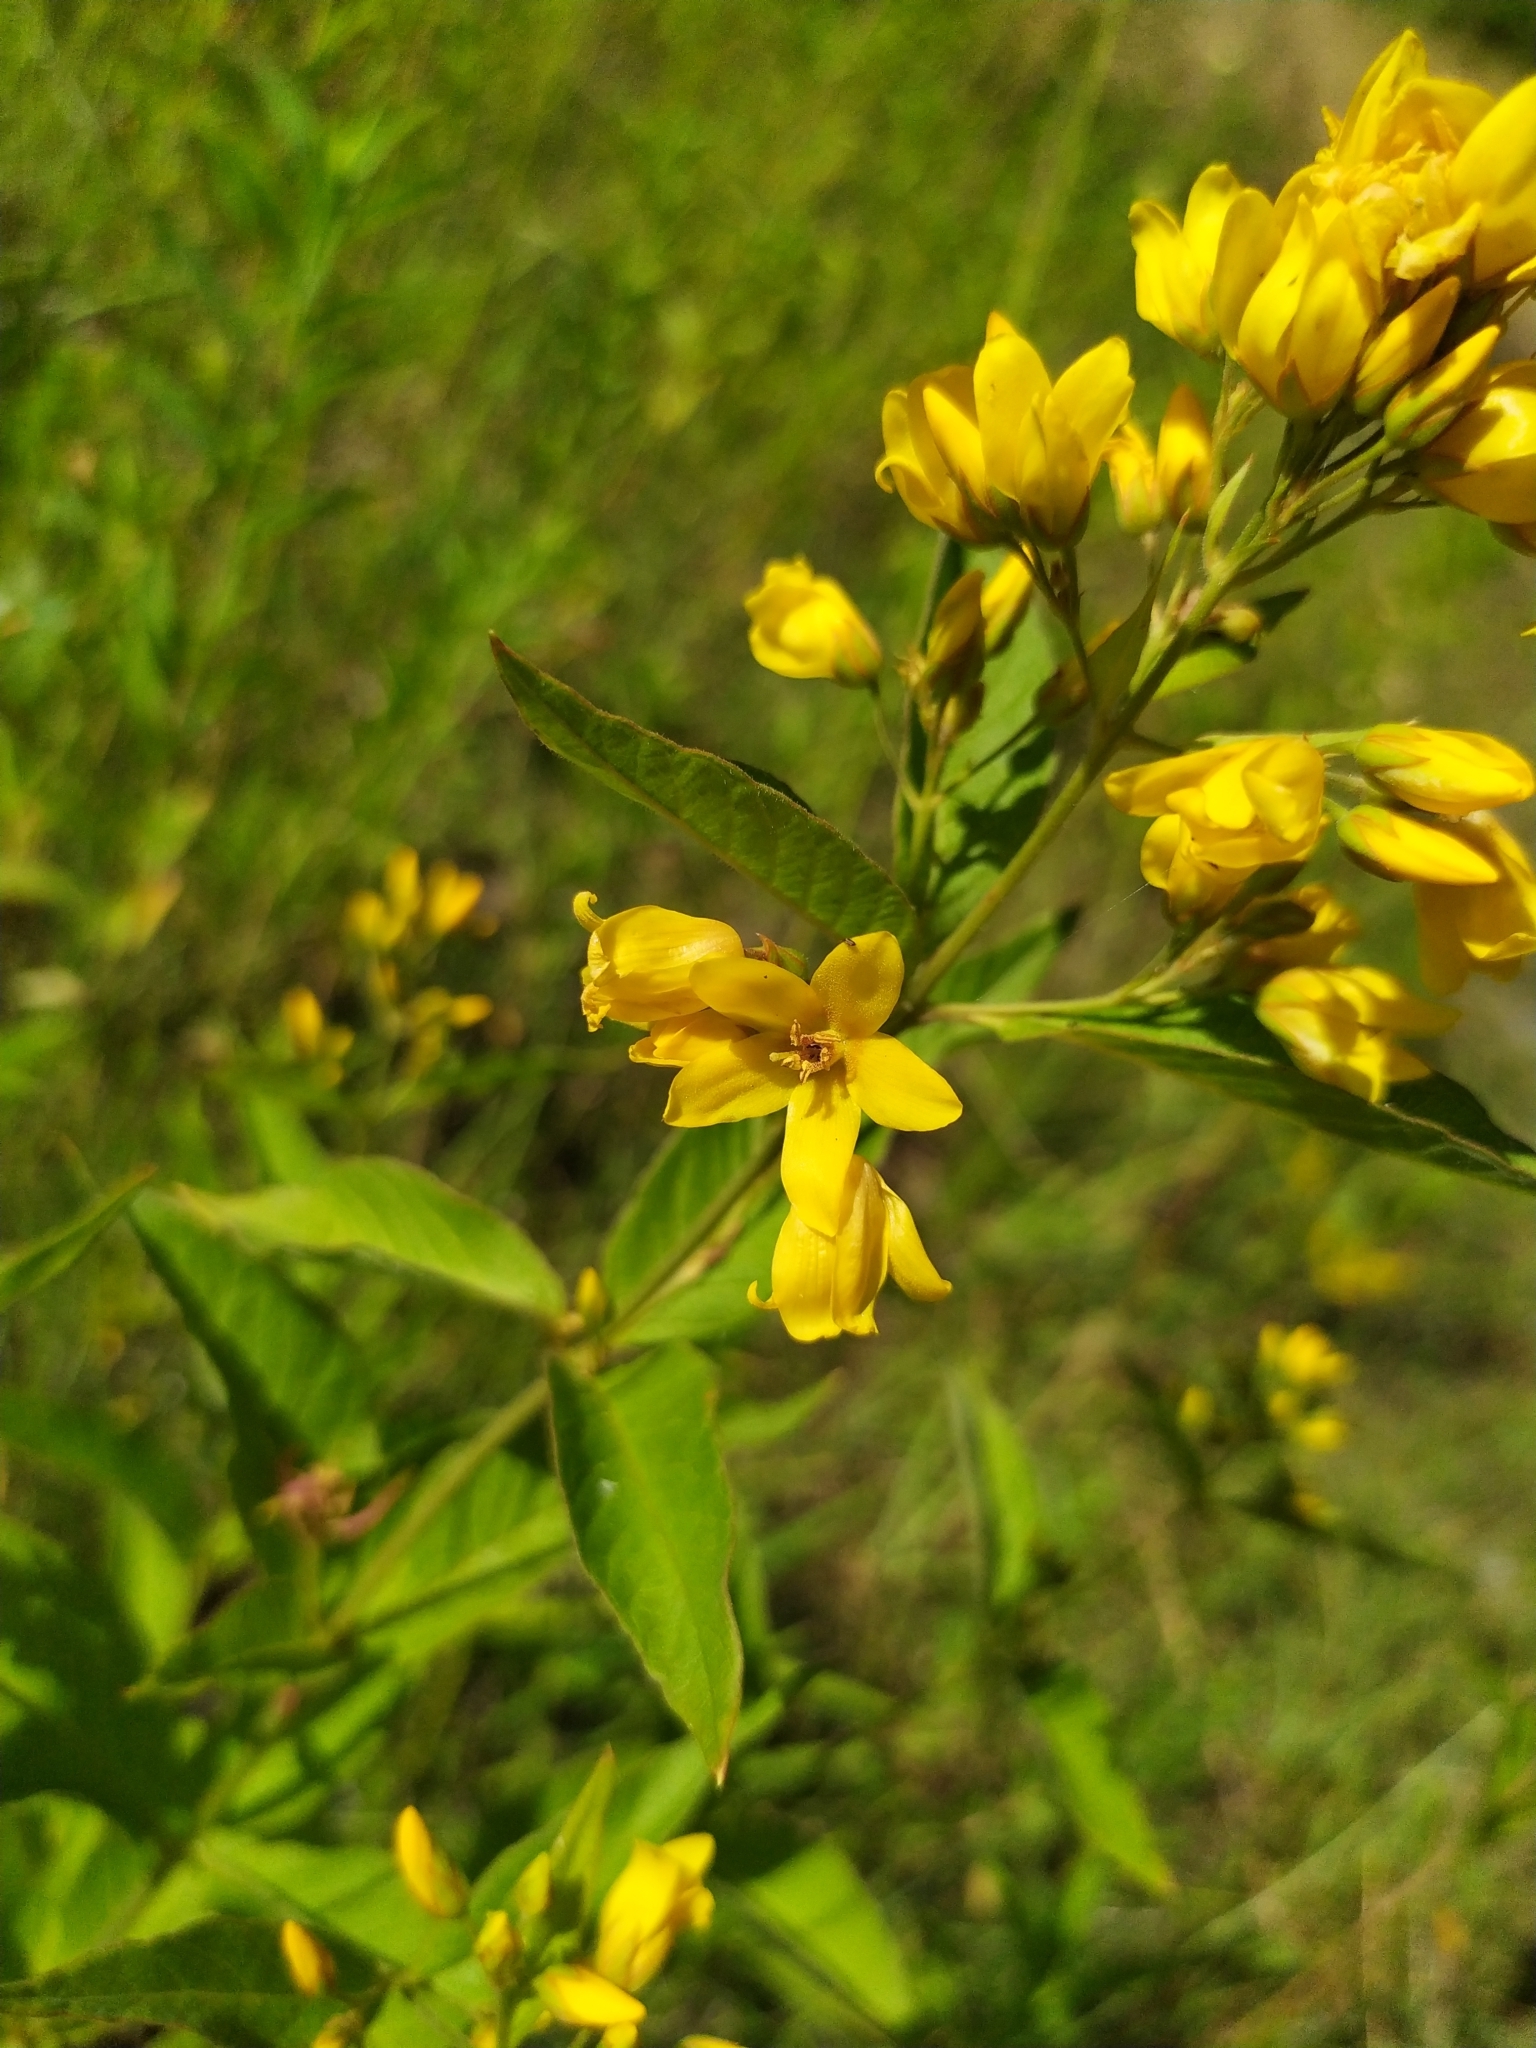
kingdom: Plantae
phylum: Tracheophyta
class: Magnoliopsida
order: Ericales
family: Primulaceae
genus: Lysimachia
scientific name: Lysimachia vulgaris
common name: Yellow loosestrife
